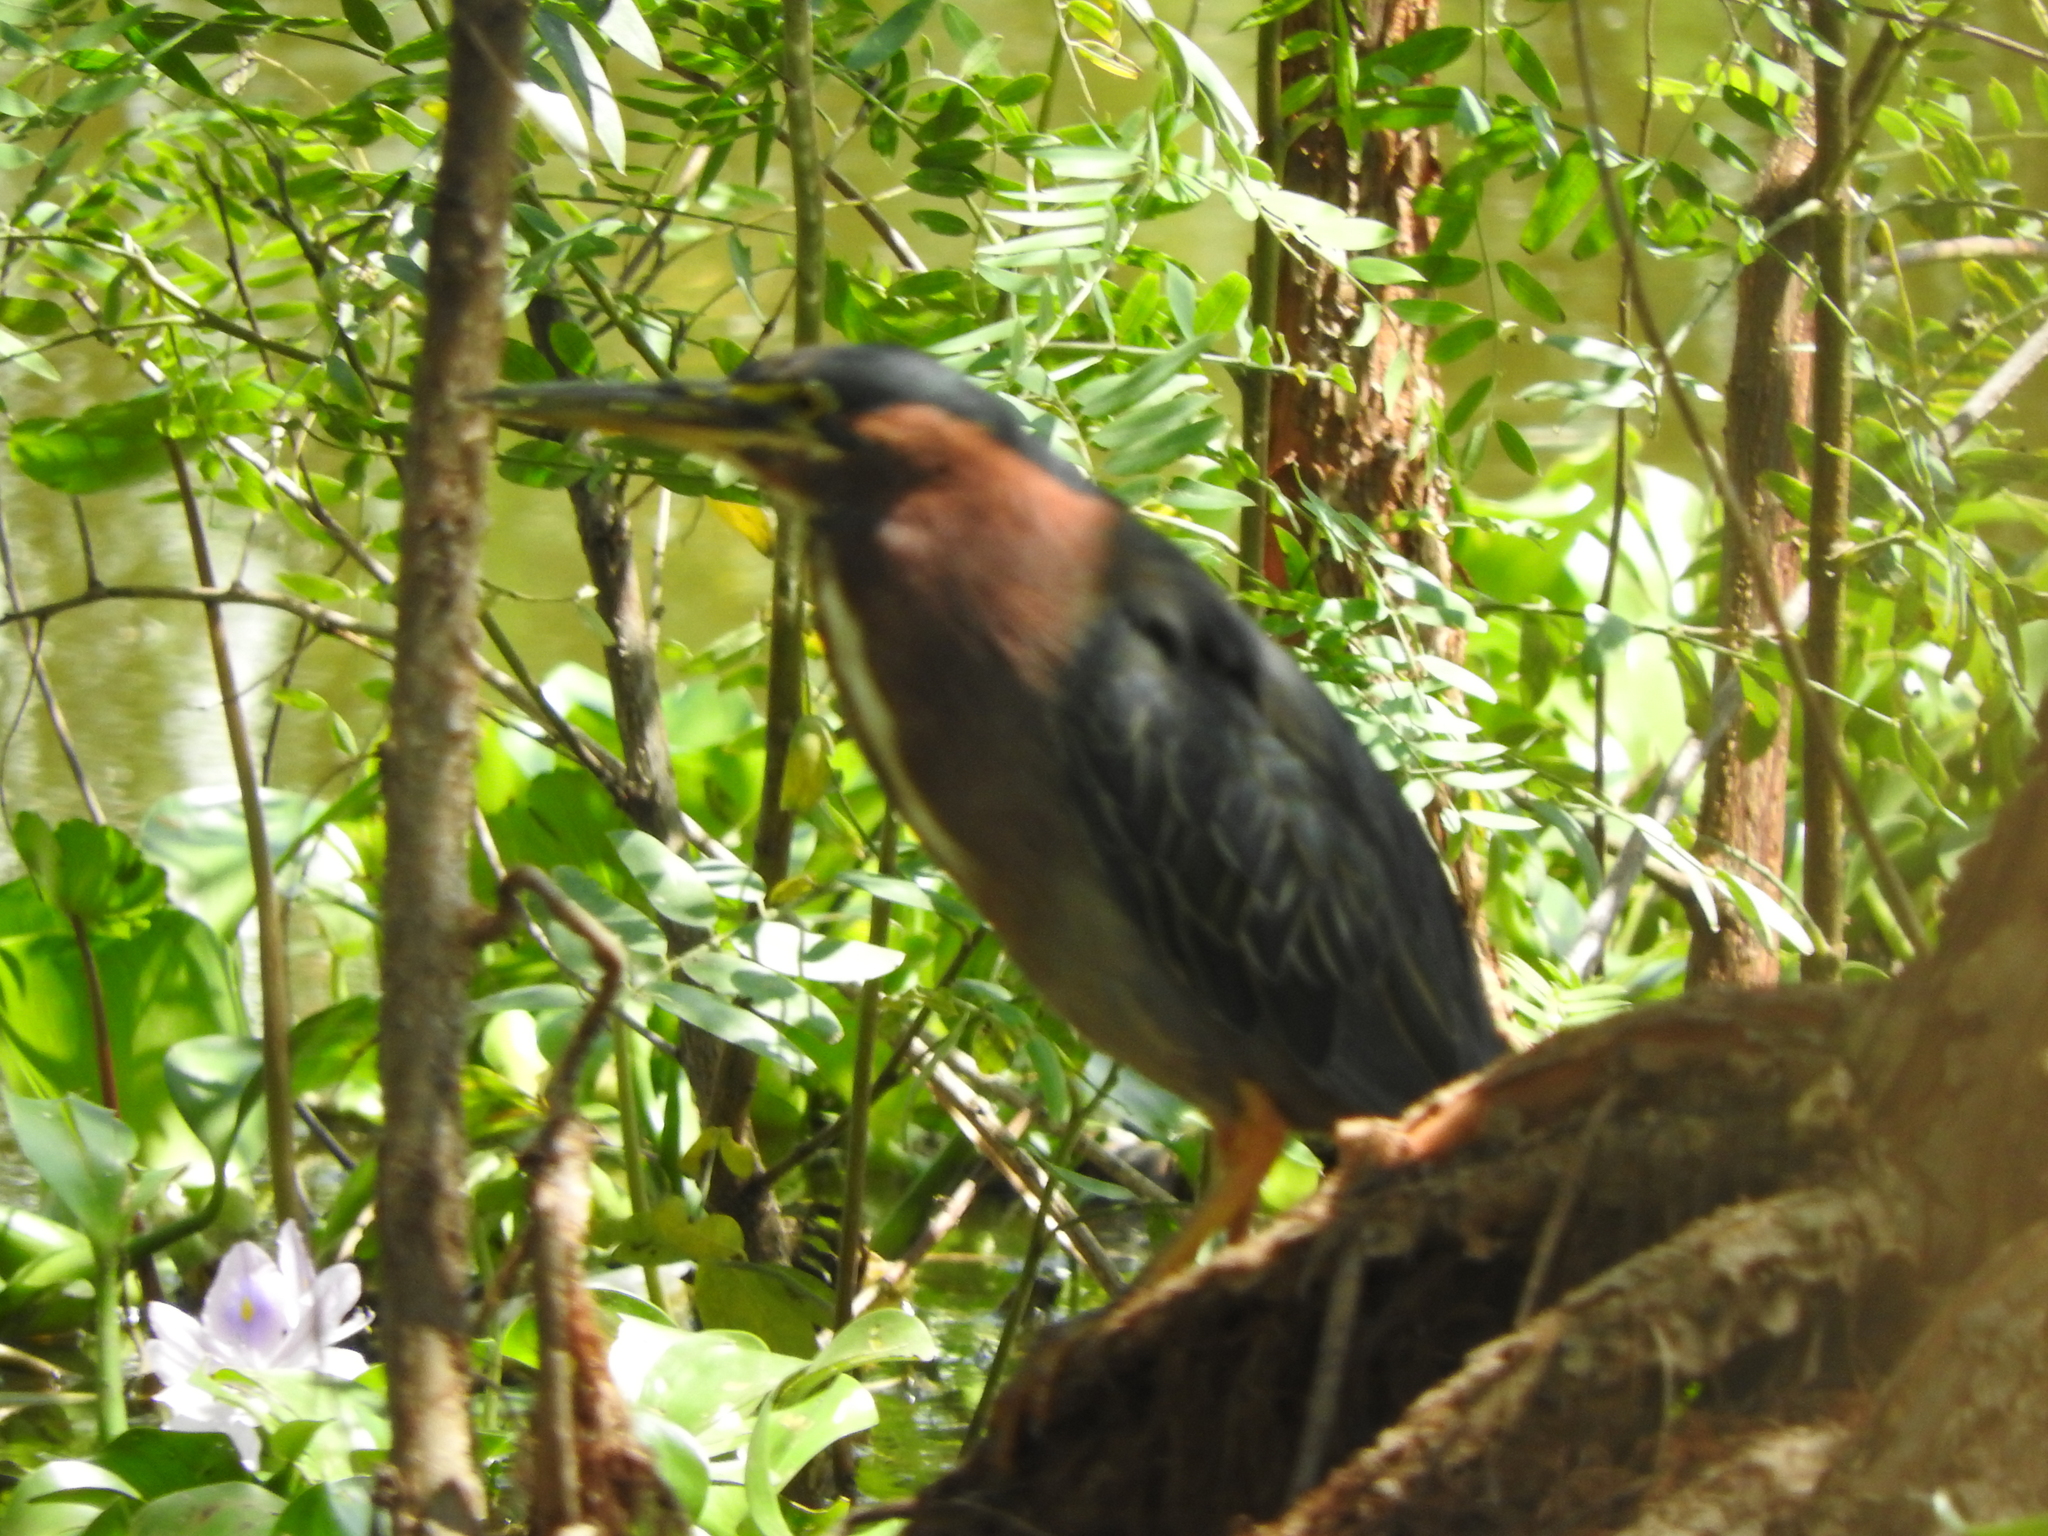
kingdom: Animalia
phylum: Chordata
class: Aves
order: Pelecaniformes
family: Ardeidae
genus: Butorides
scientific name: Butorides virescens
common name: Green heron
